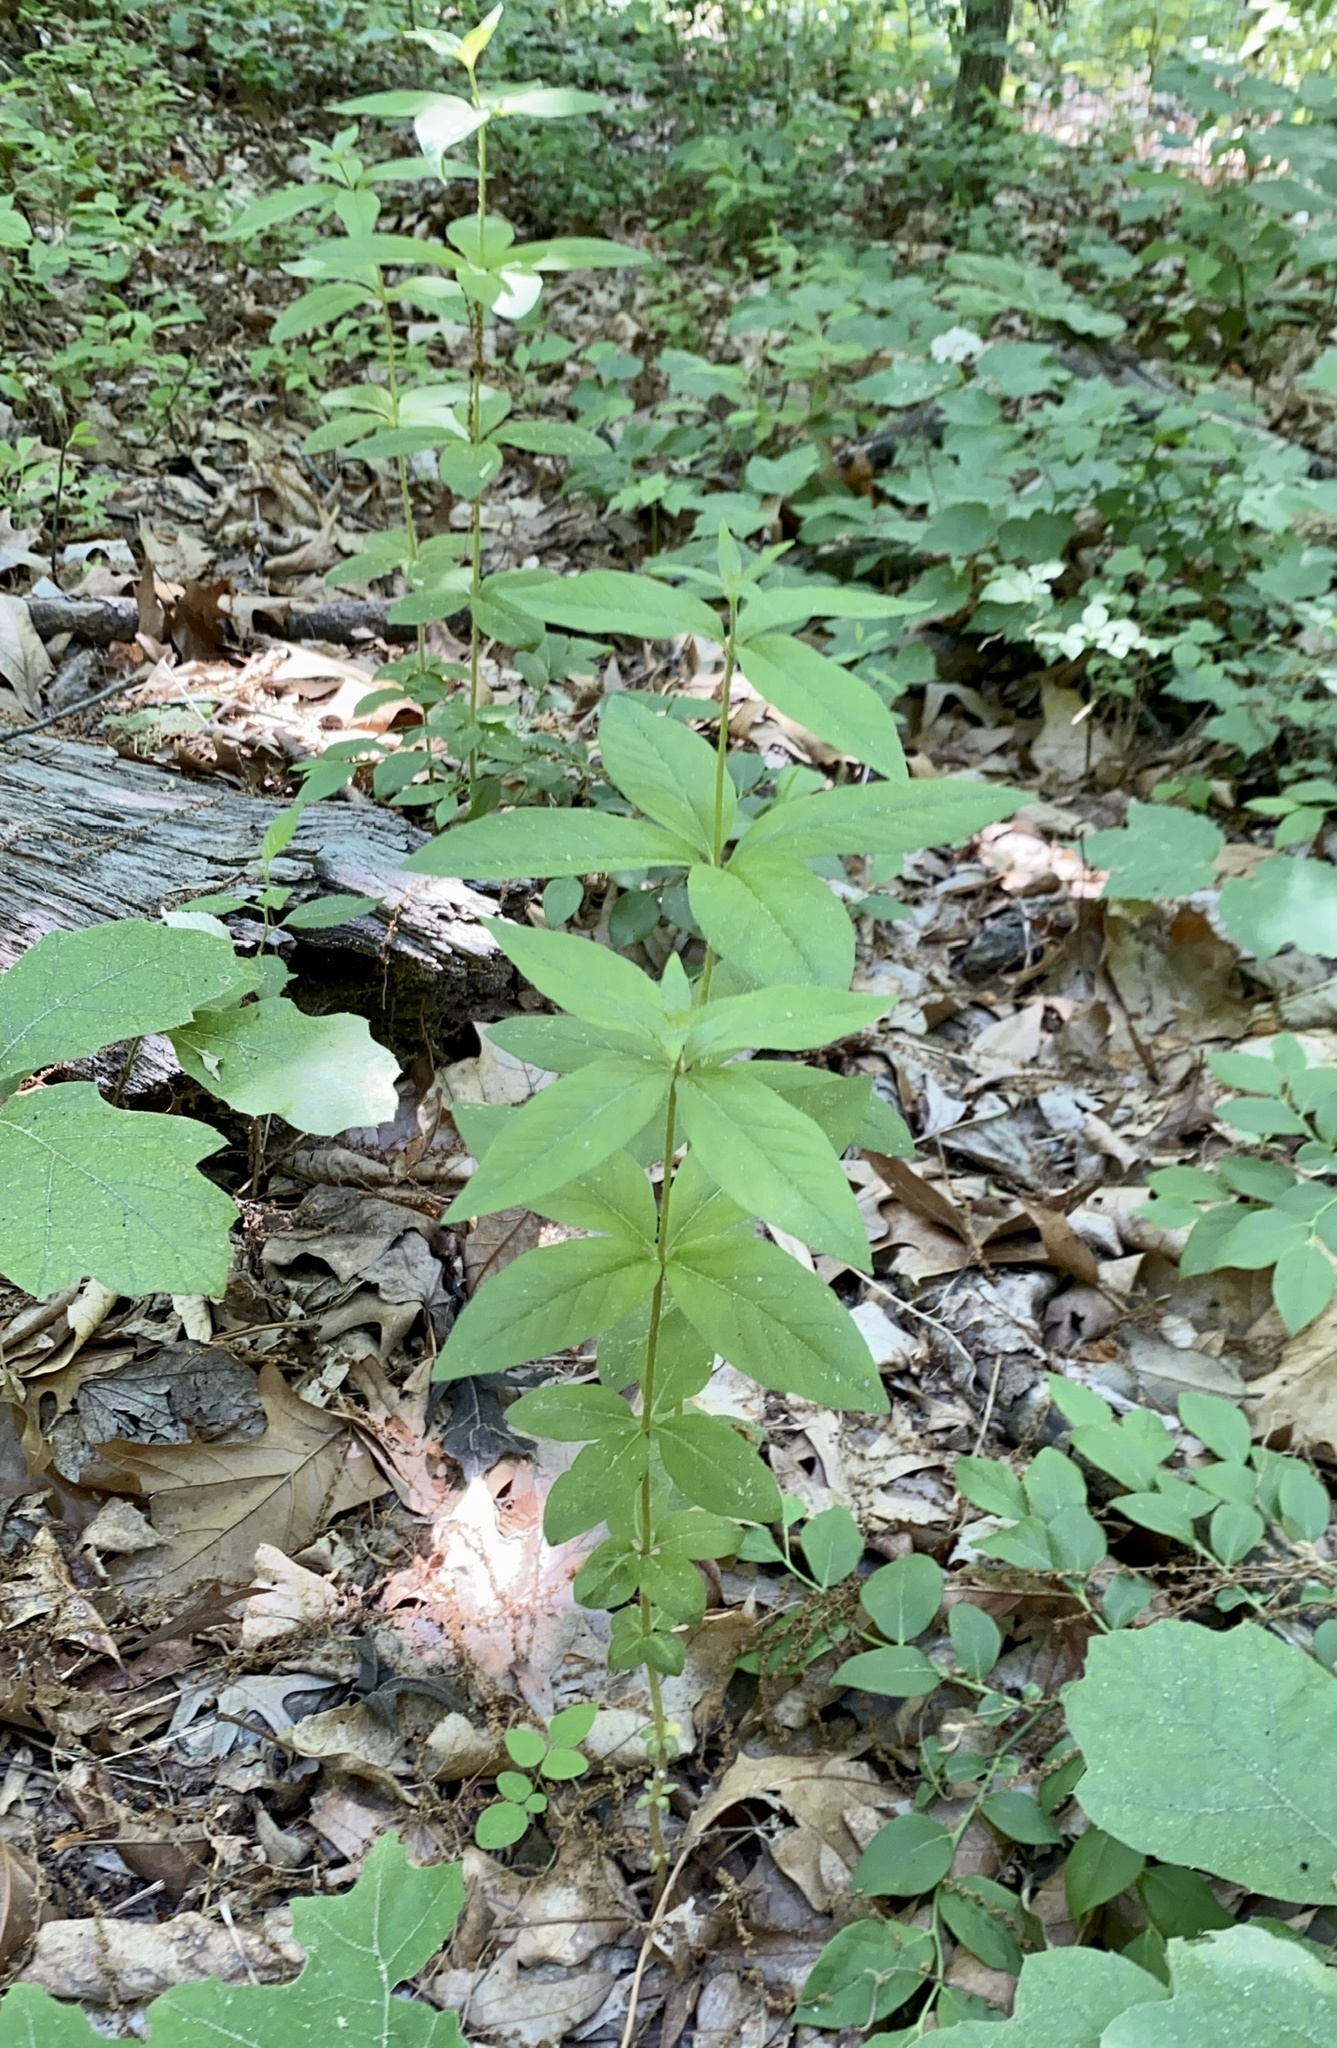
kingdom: Plantae
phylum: Tracheophyta
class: Magnoliopsida
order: Ericales
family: Primulaceae
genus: Lysimachia
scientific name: Lysimachia quadrifolia
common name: Whorled loosestrife
